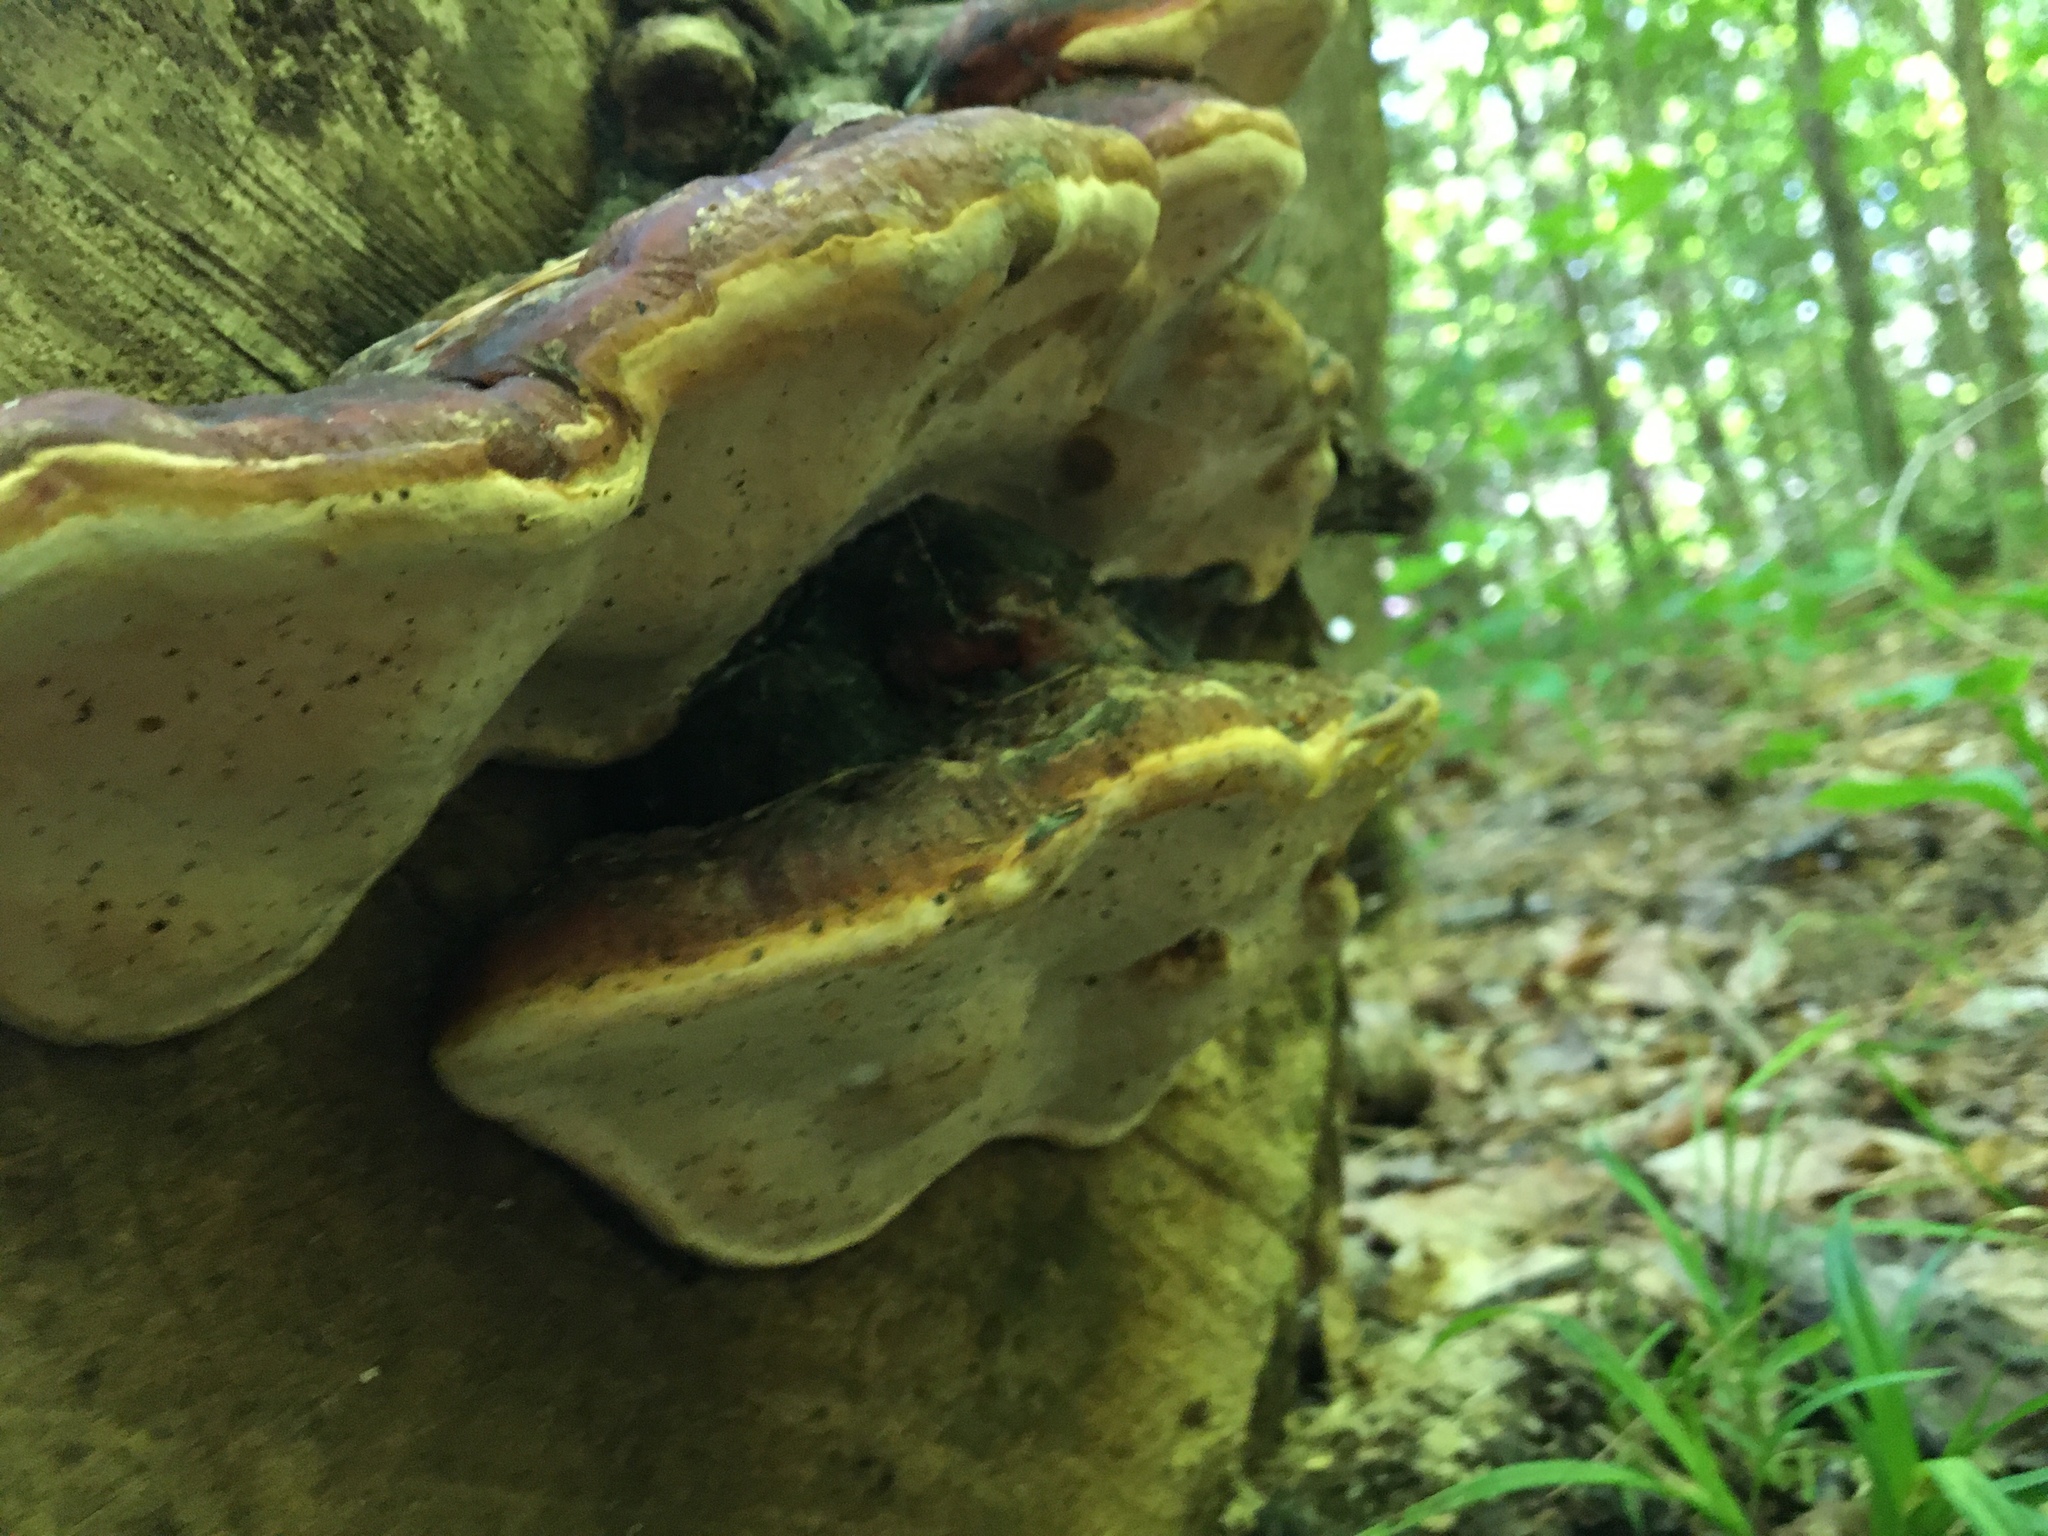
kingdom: Fungi
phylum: Basidiomycota
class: Agaricomycetes
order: Polyporales
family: Fomitopsidaceae
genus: Fomitopsis
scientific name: Fomitopsis mounceae
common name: Northern red belt
